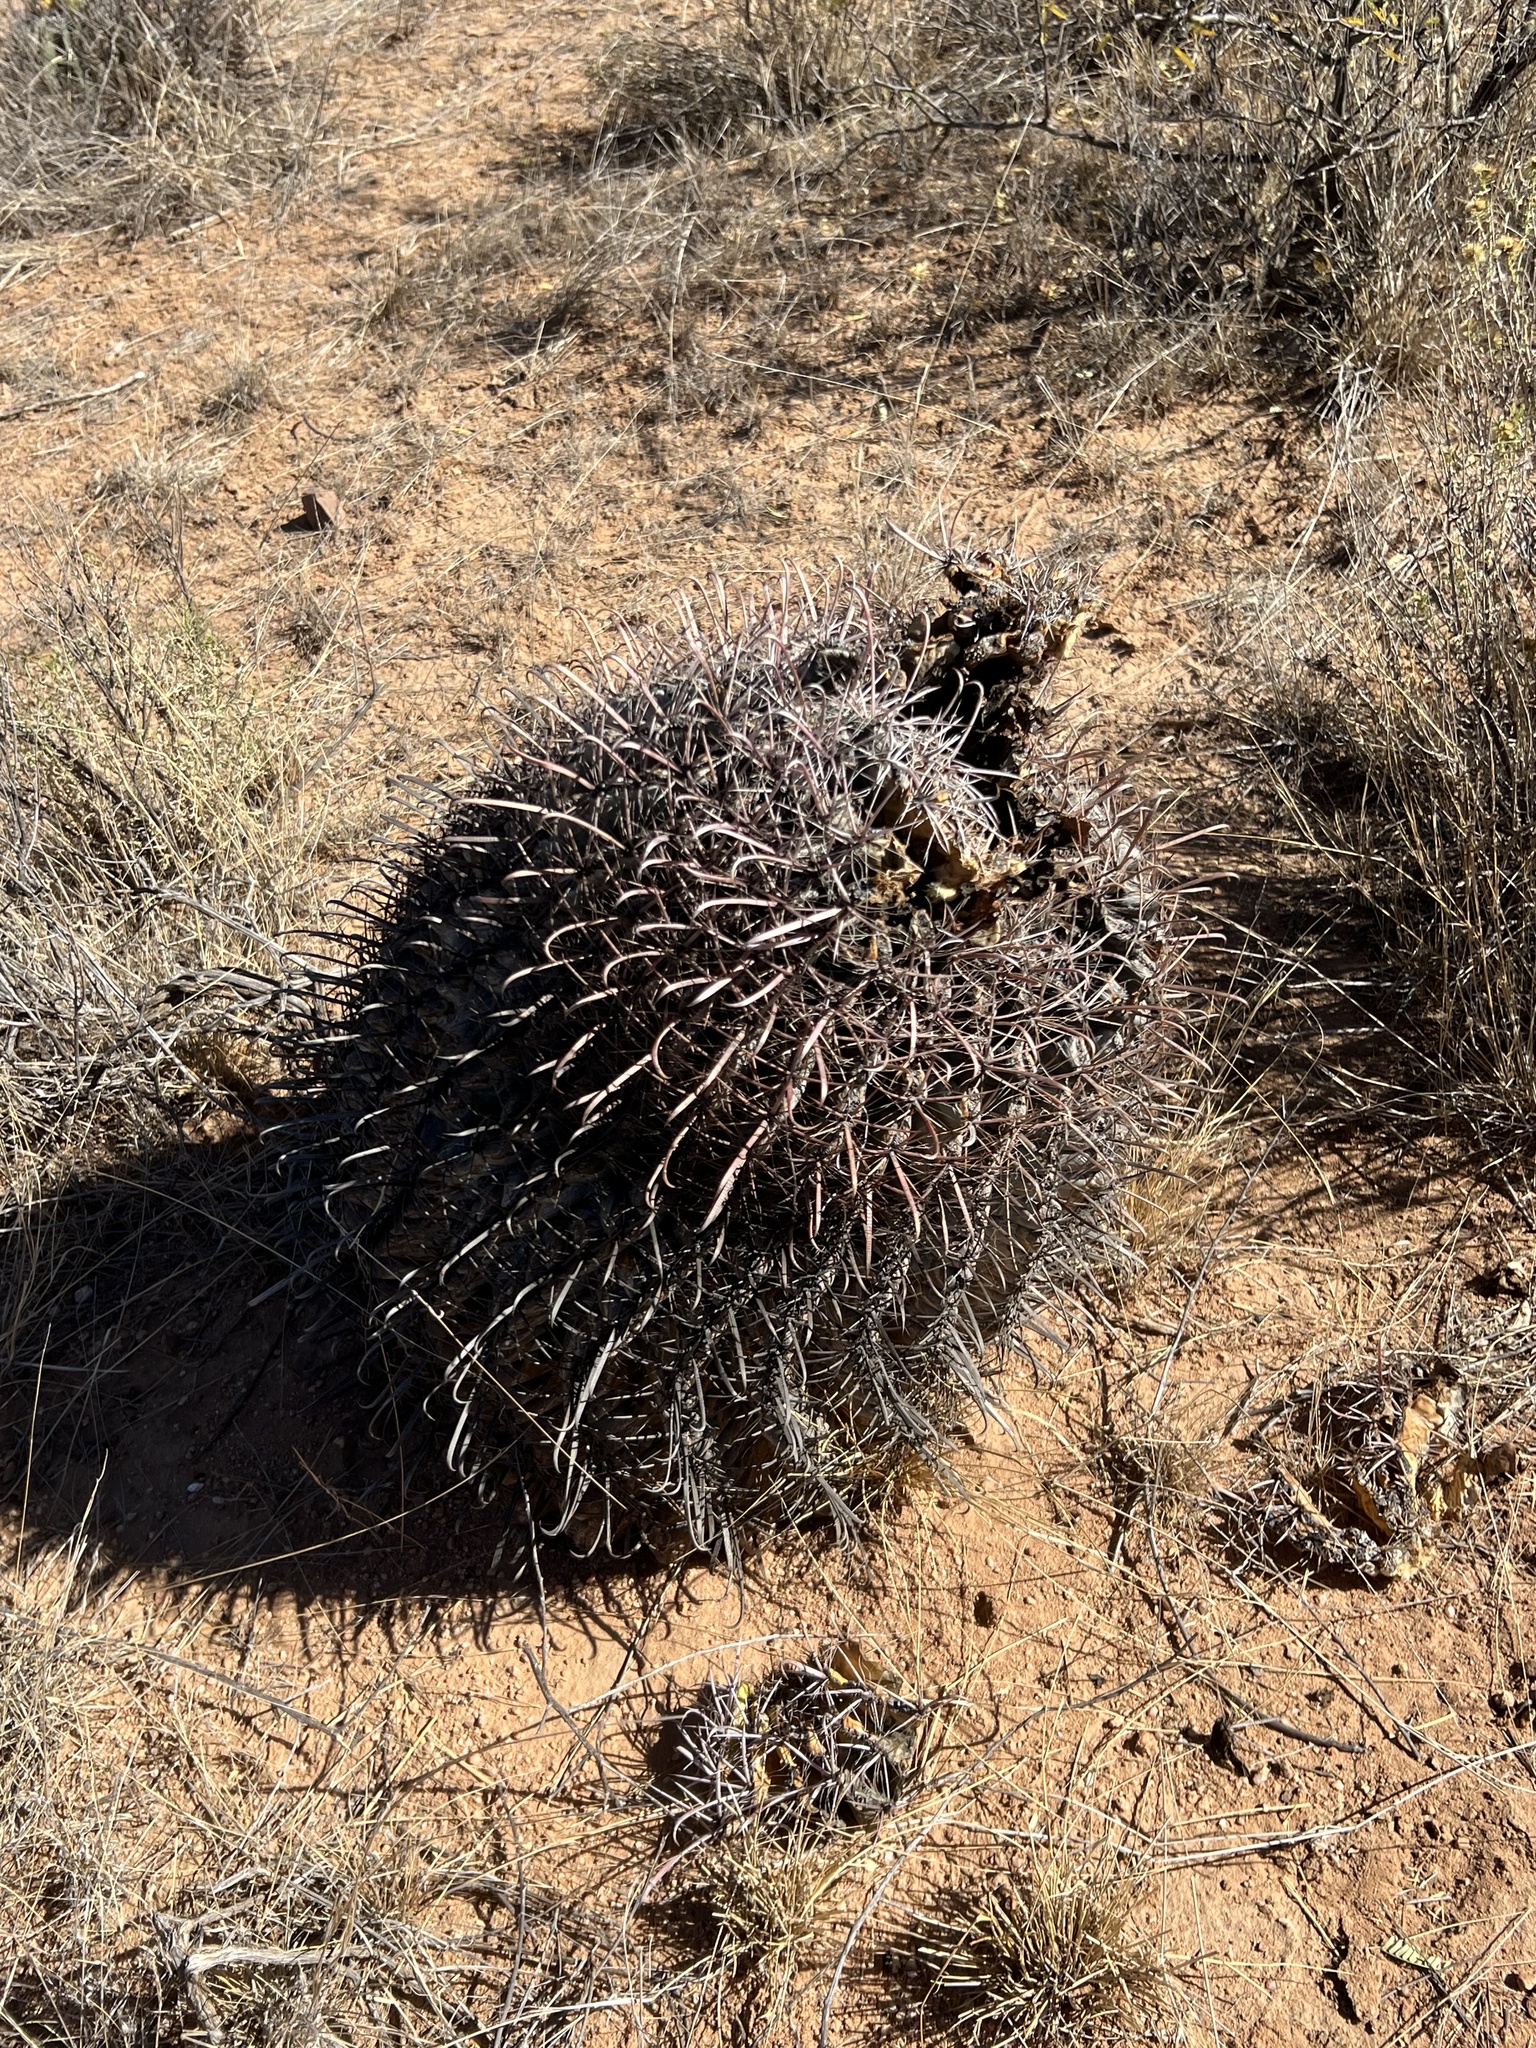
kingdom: Plantae
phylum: Tracheophyta
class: Magnoliopsida
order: Caryophyllales
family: Cactaceae
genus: Ferocactus
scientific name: Ferocactus wislizeni
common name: Candy barrel cactus
